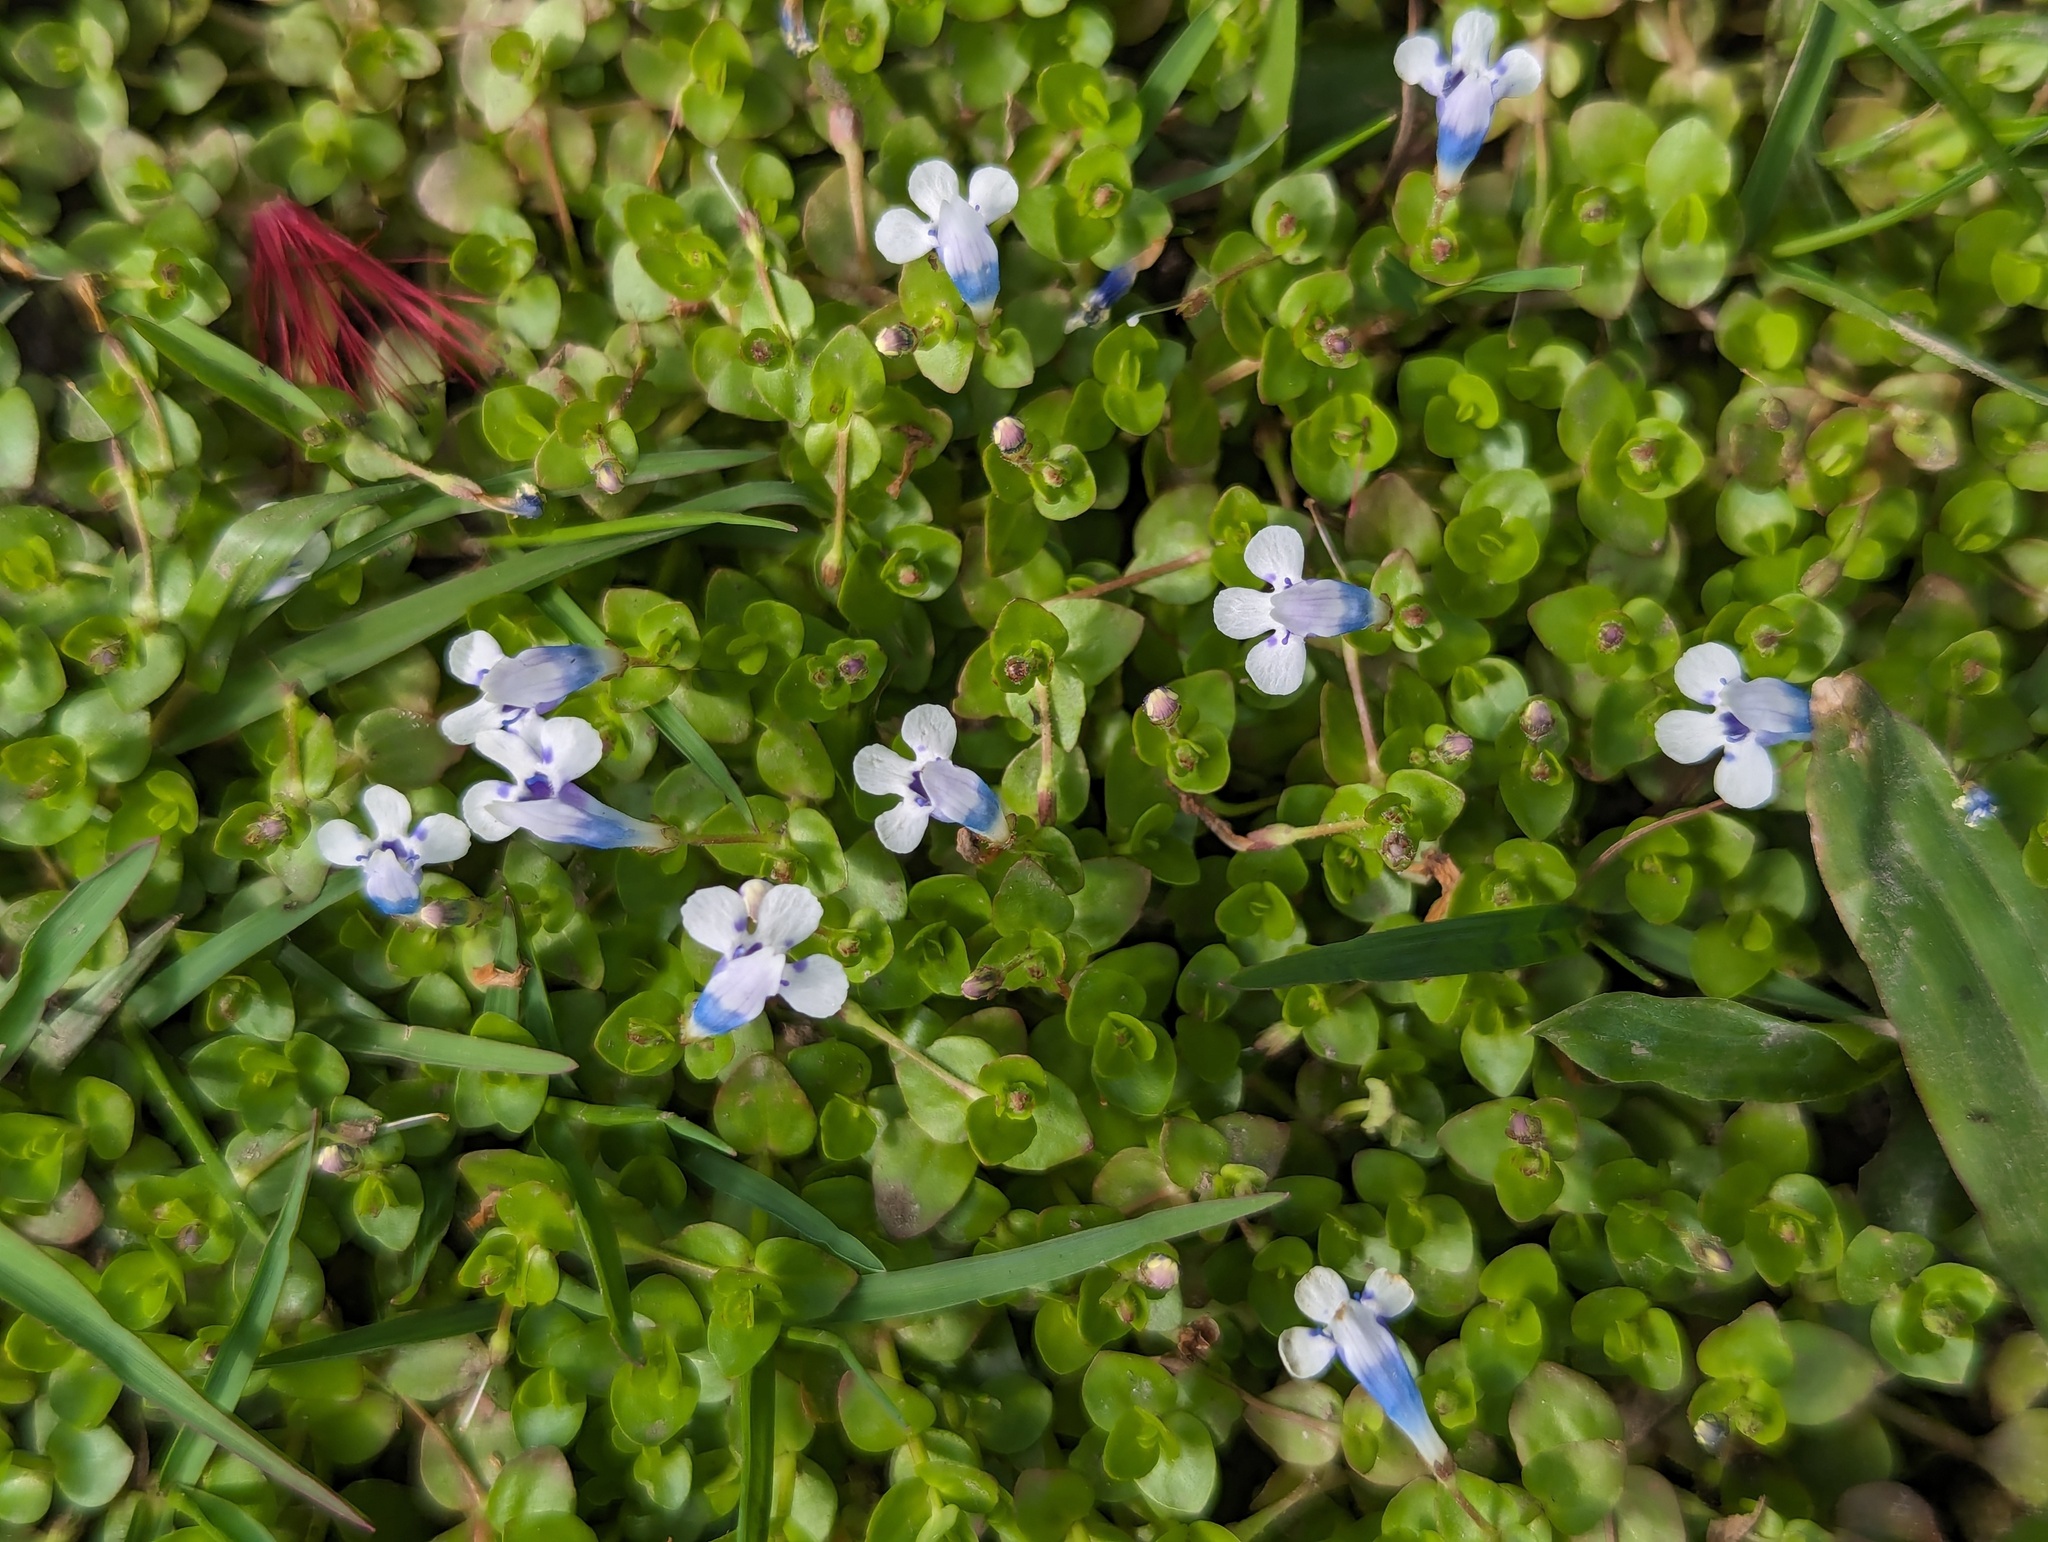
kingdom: Plantae
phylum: Tracheophyta
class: Magnoliopsida
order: Lamiales
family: Linderniaceae
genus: Lindernia
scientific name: Lindernia rotundifolia
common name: Baby’s tears
